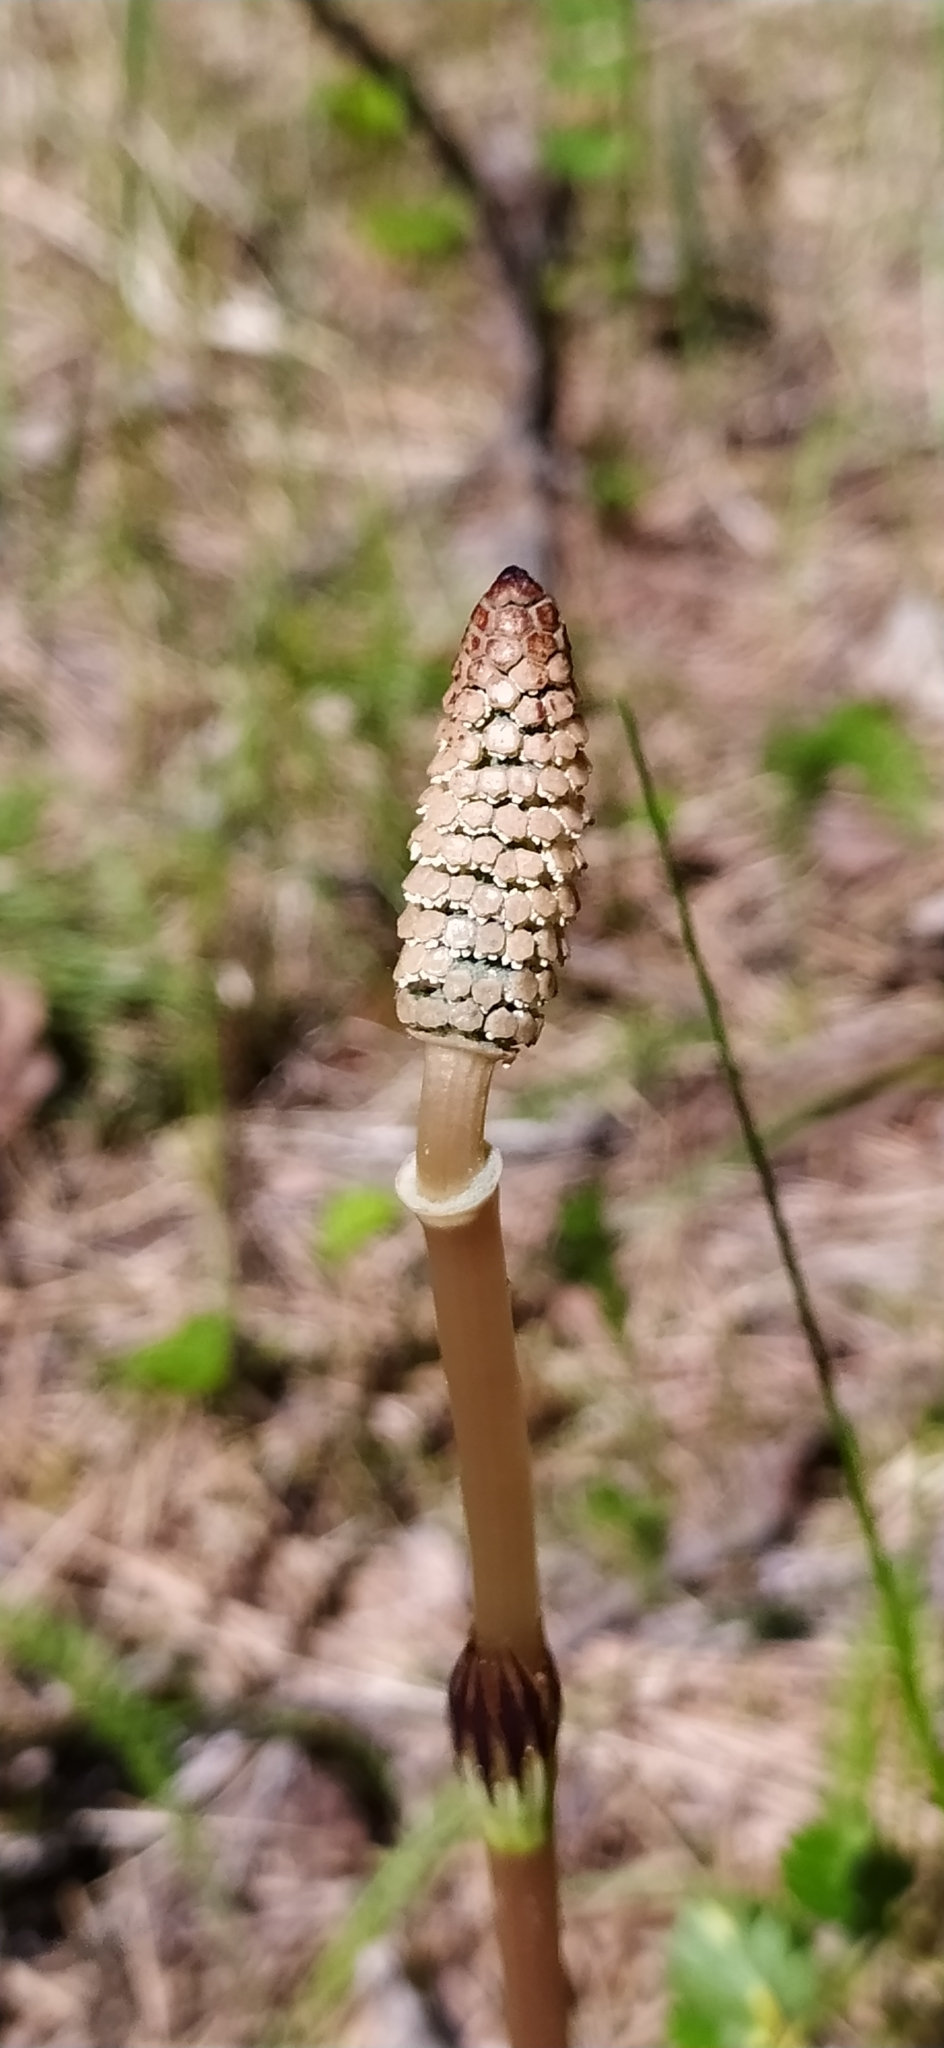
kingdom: Plantae
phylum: Tracheophyta
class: Polypodiopsida
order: Equisetales
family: Equisetaceae
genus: Equisetum
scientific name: Equisetum arvense
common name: Field horsetail
